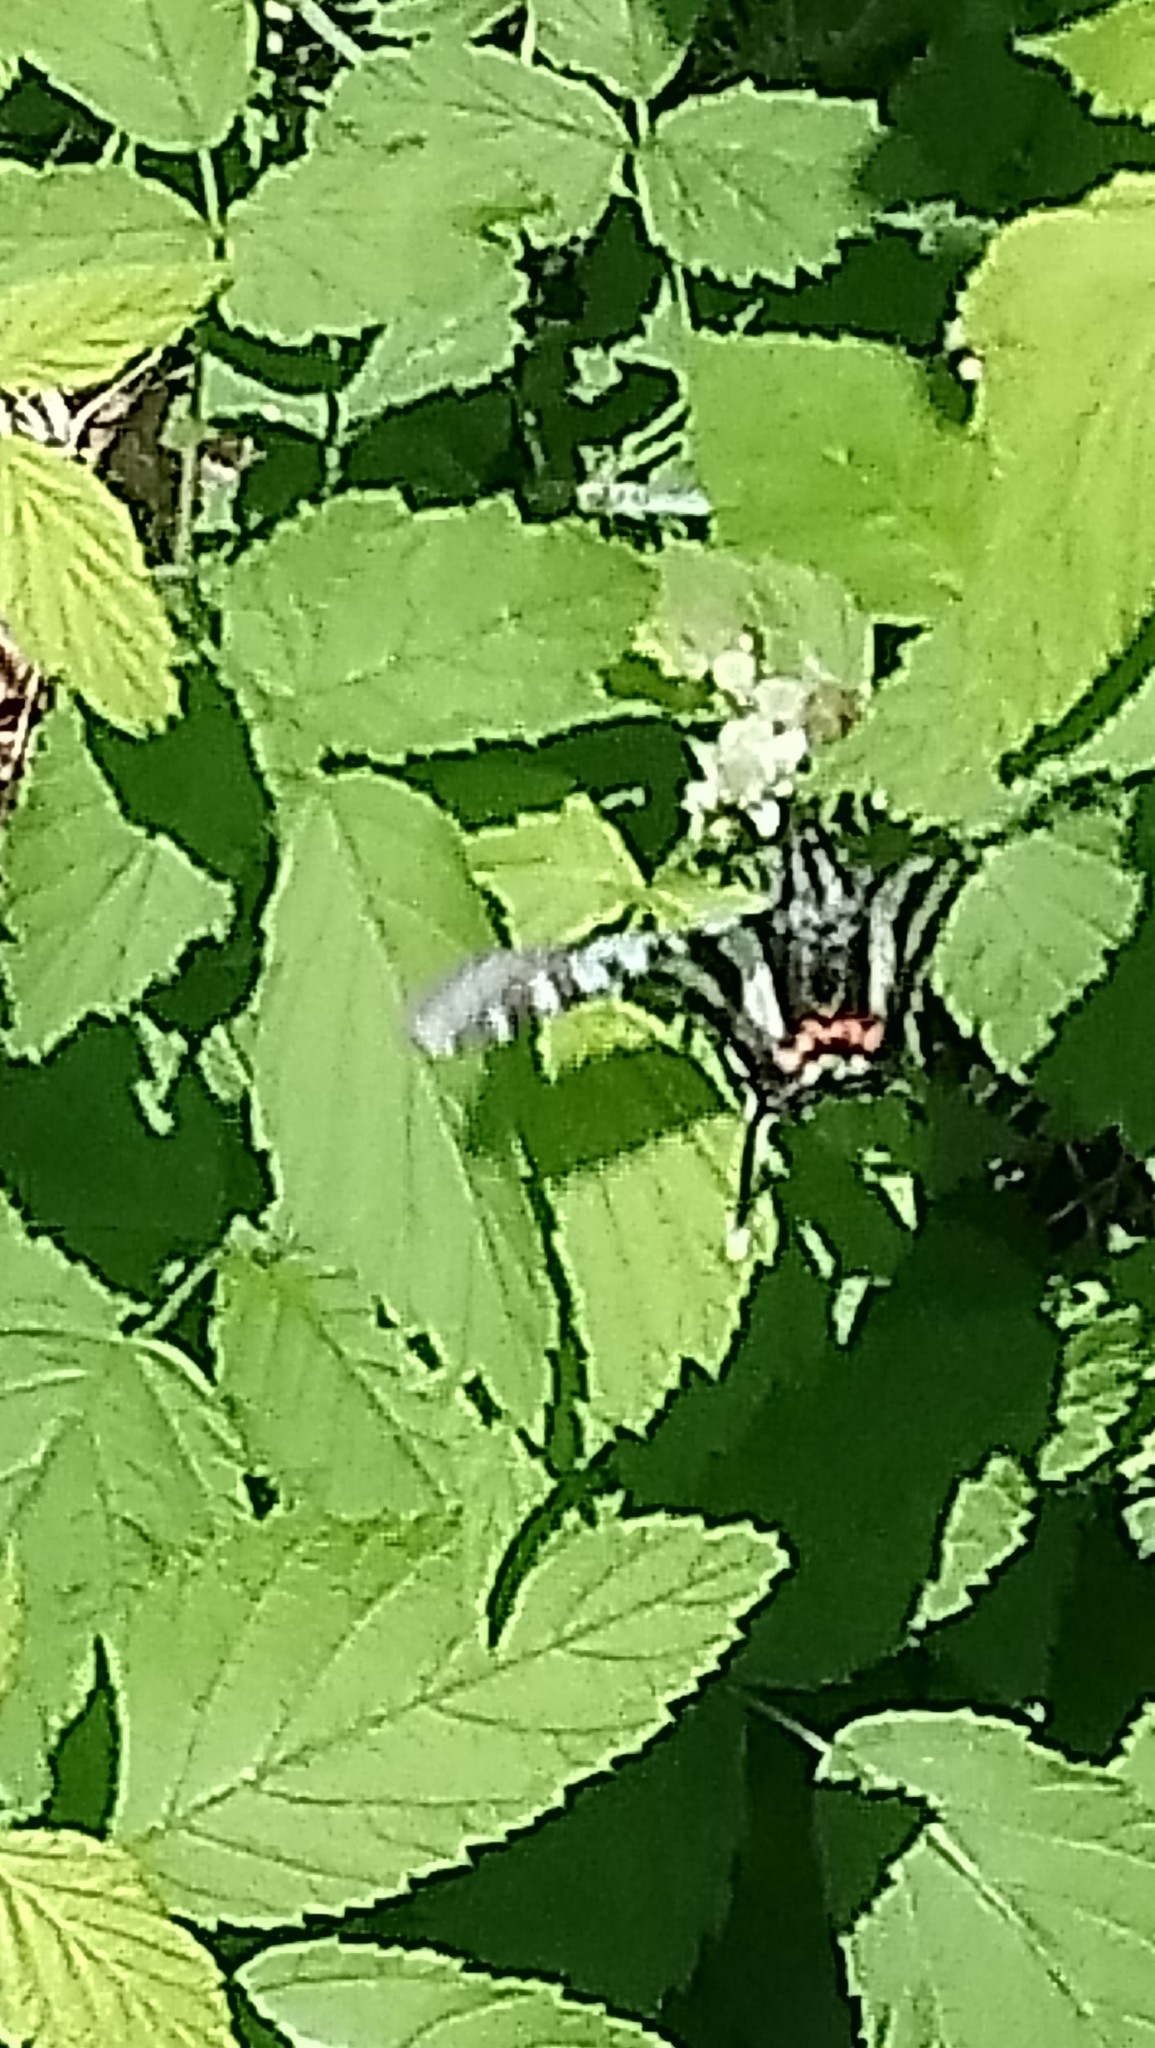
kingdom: Animalia
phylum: Arthropoda
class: Insecta
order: Lepidoptera
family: Papilionidae
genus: Protographium
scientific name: Protographium marcellus
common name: Zebra swallowtail
